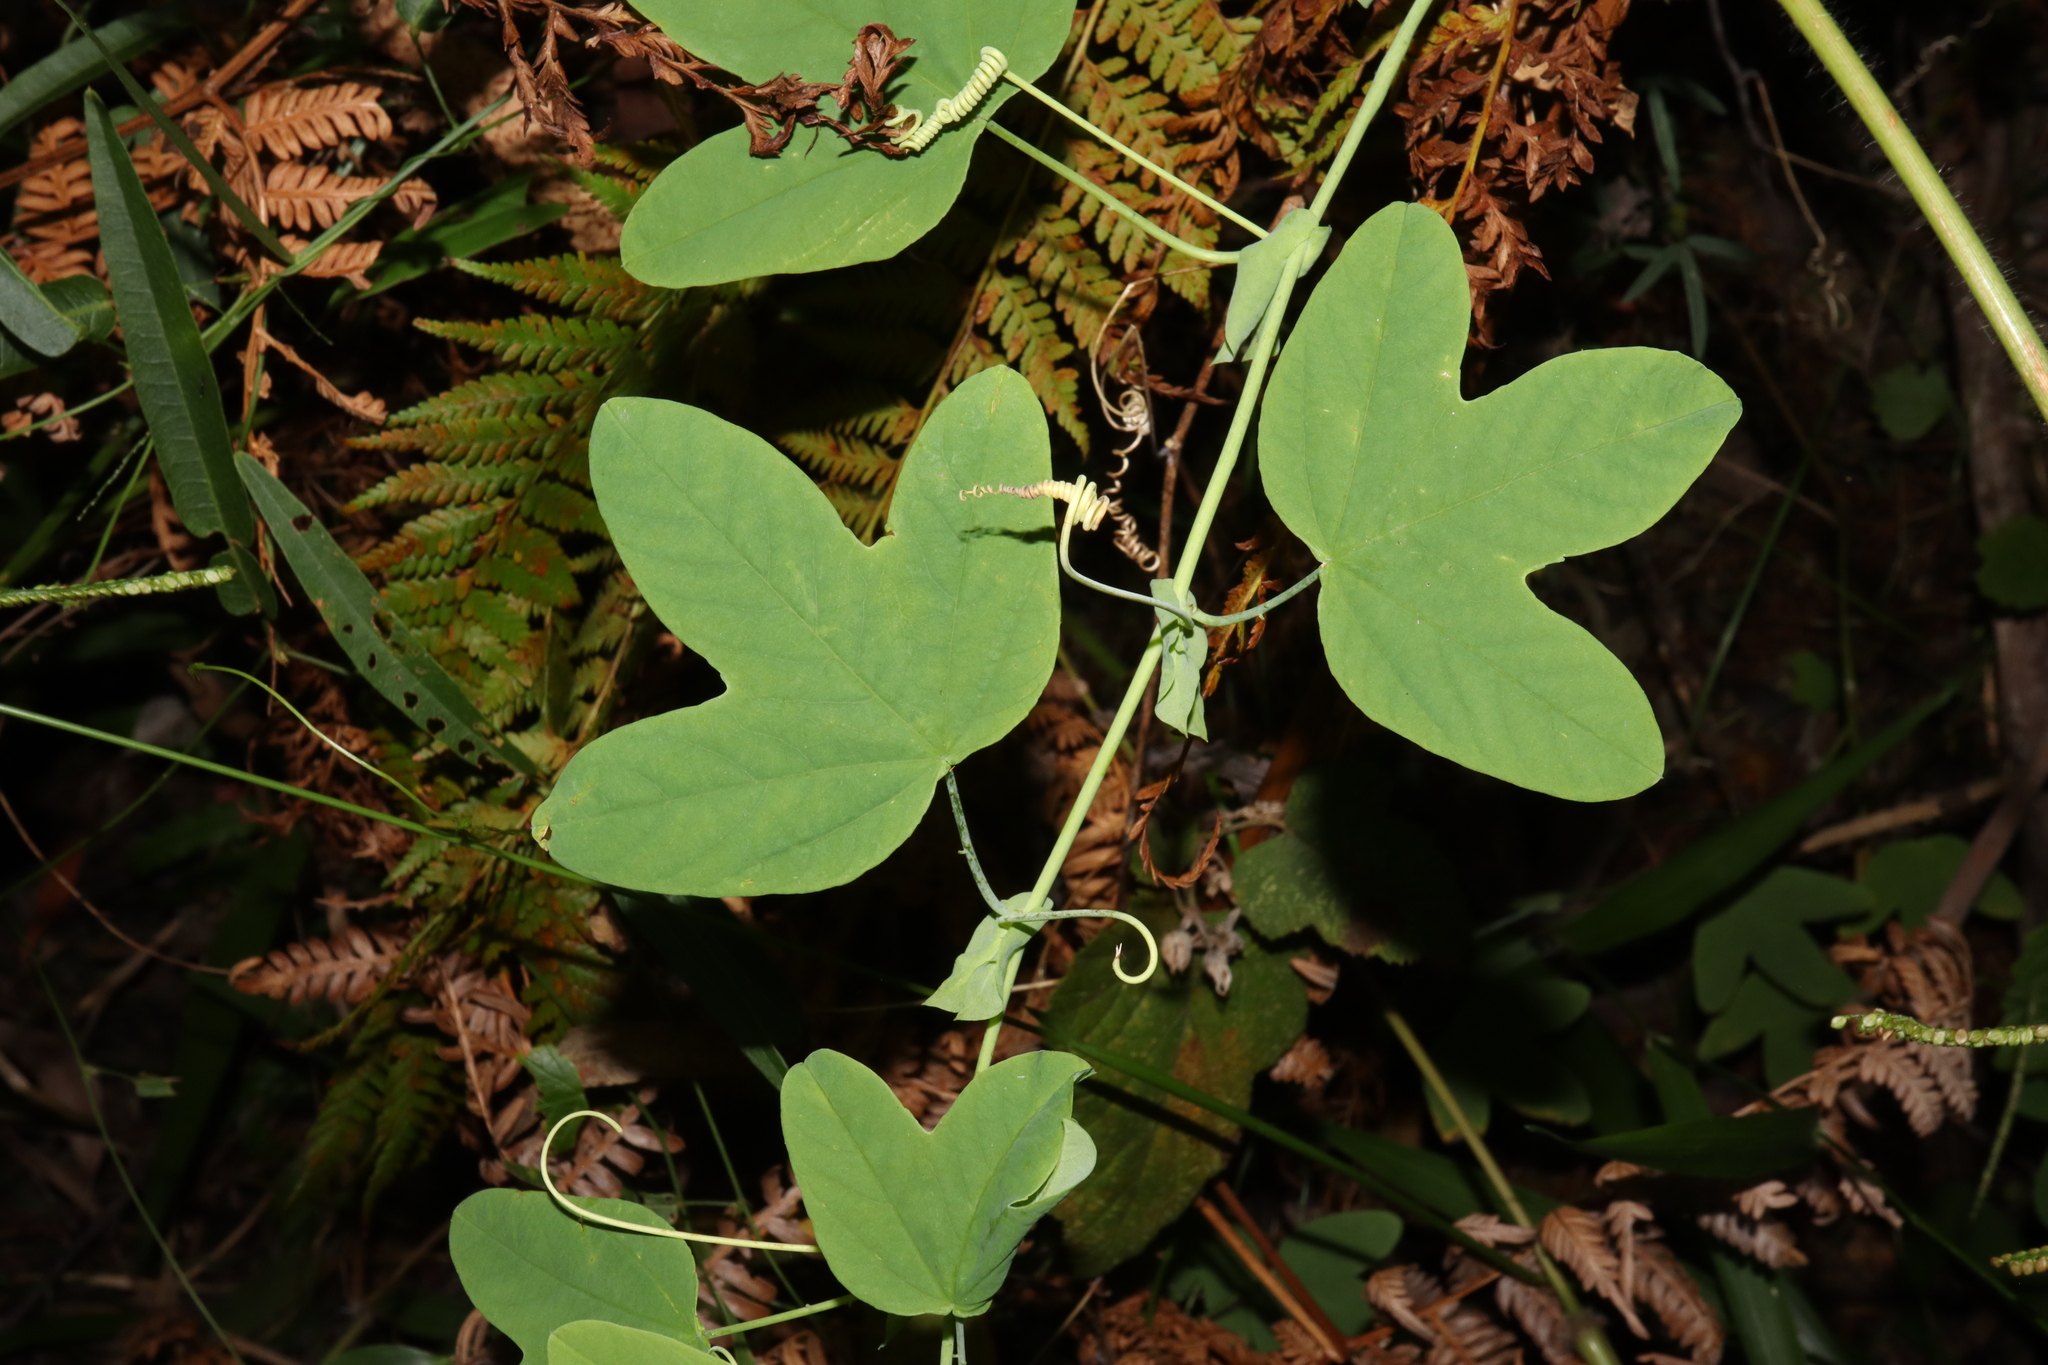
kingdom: Plantae
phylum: Tracheophyta
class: Magnoliopsida
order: Malpighiales
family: Passifloraceae
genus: Passiflora
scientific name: Passiflora subpeltata
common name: White passionflower
